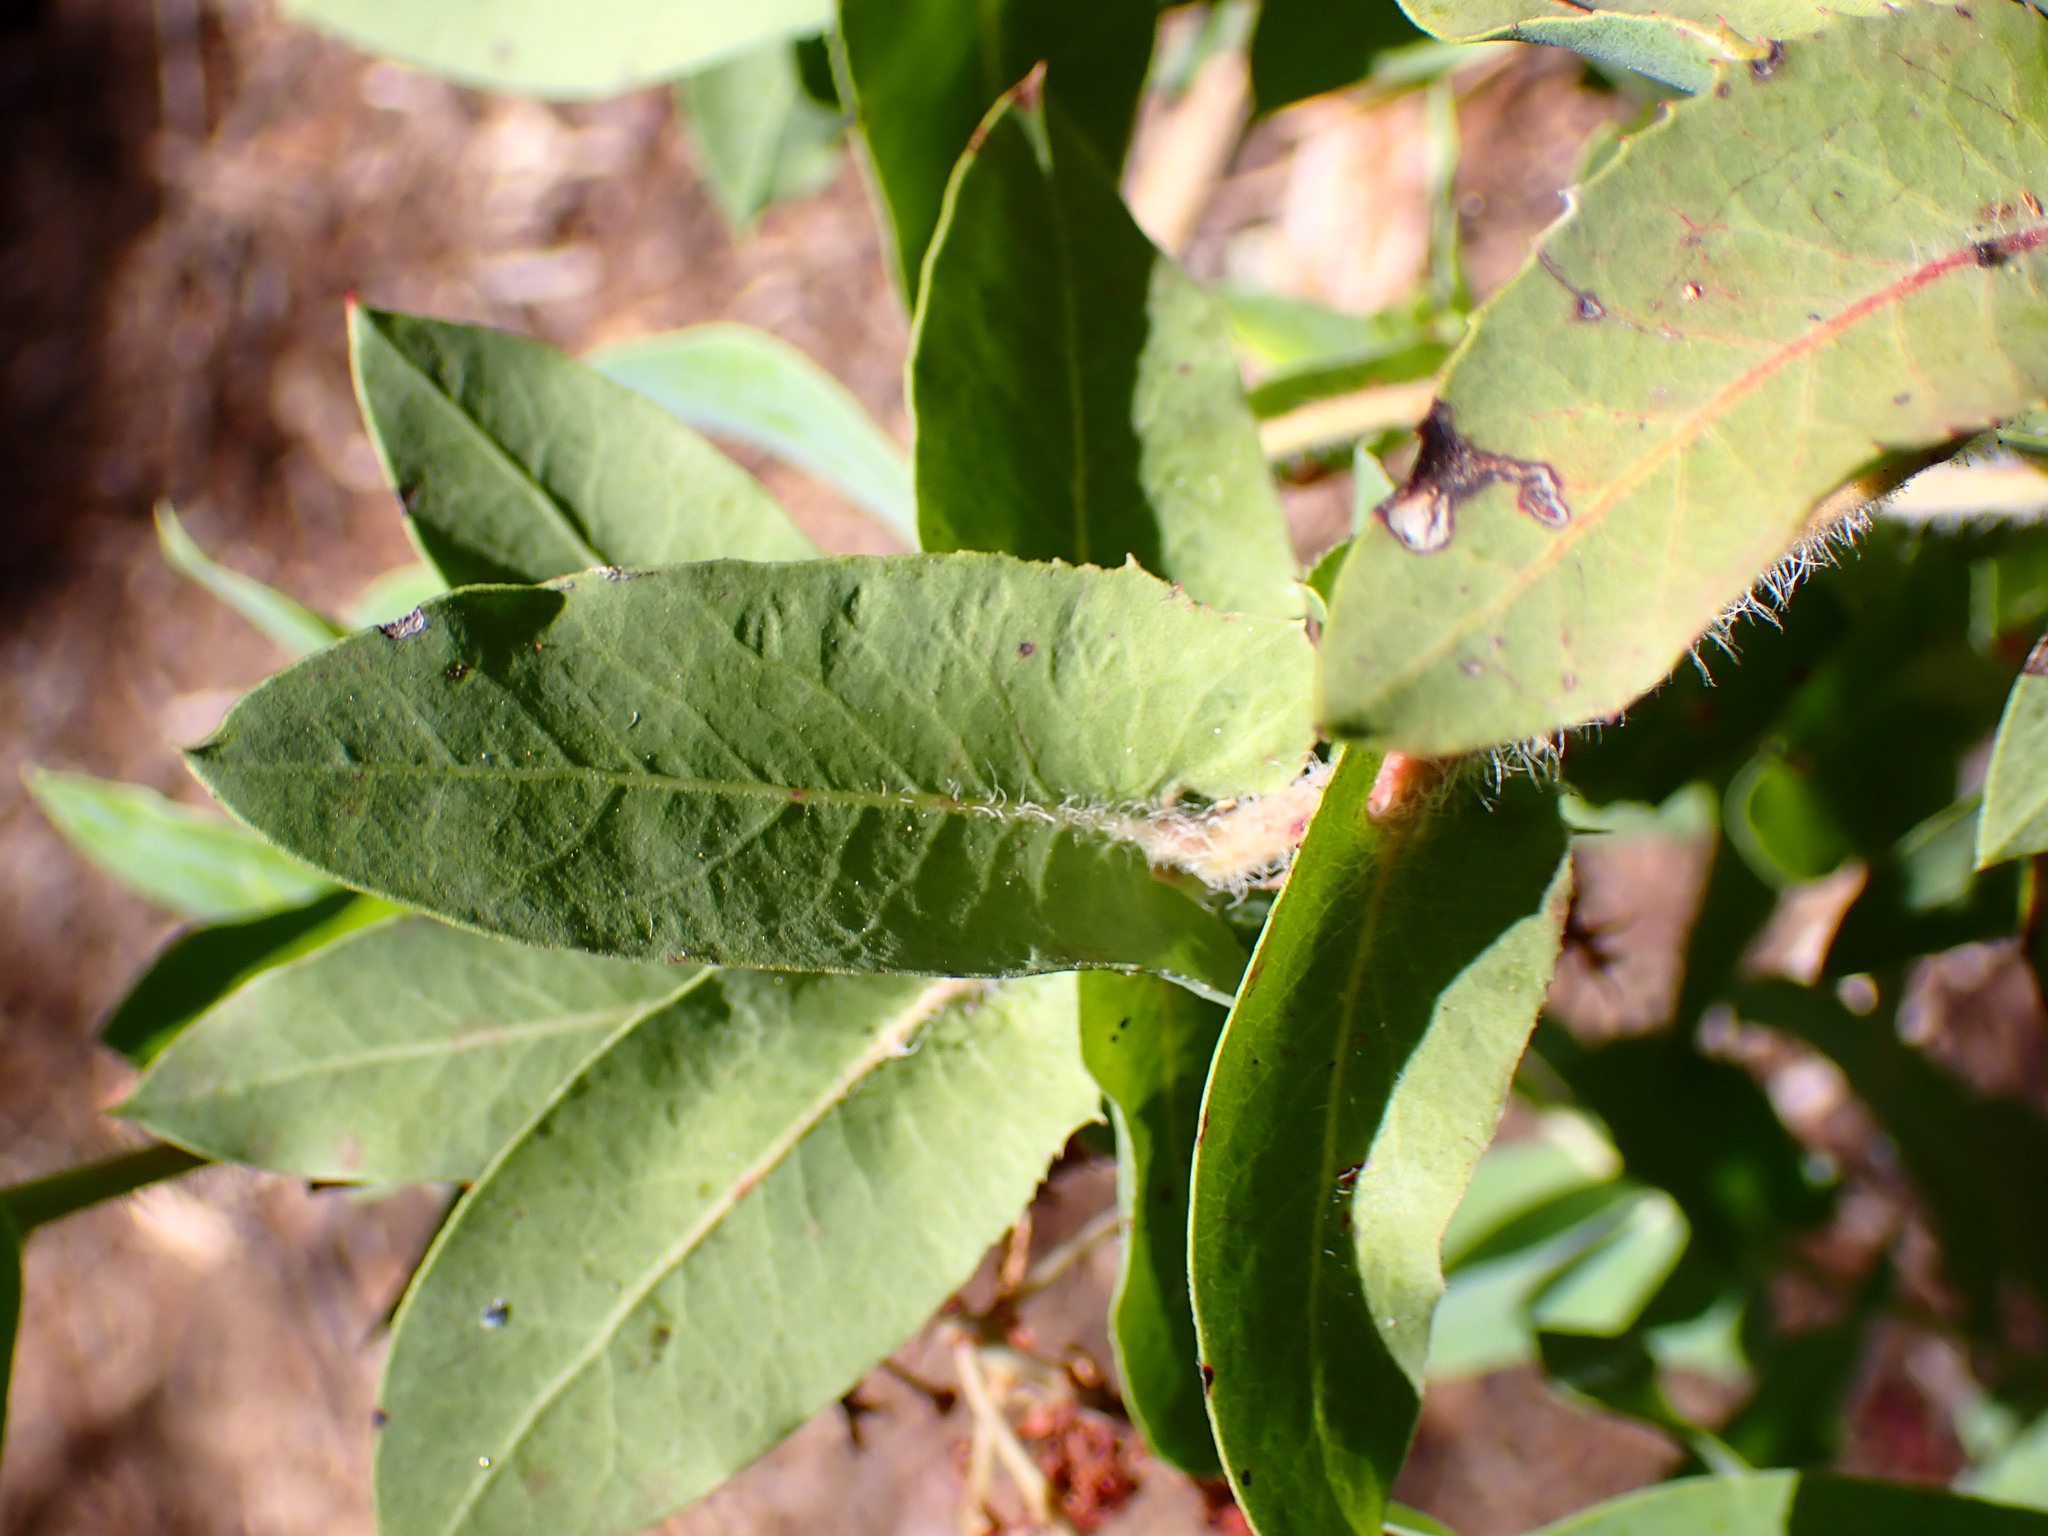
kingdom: Plantae
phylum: Tracheophyta
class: Magnoliopsida
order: Ericales
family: Ericaceae
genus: Arctostaphylos
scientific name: Arctostaphylos andersonii
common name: Santa cruz manzanita
